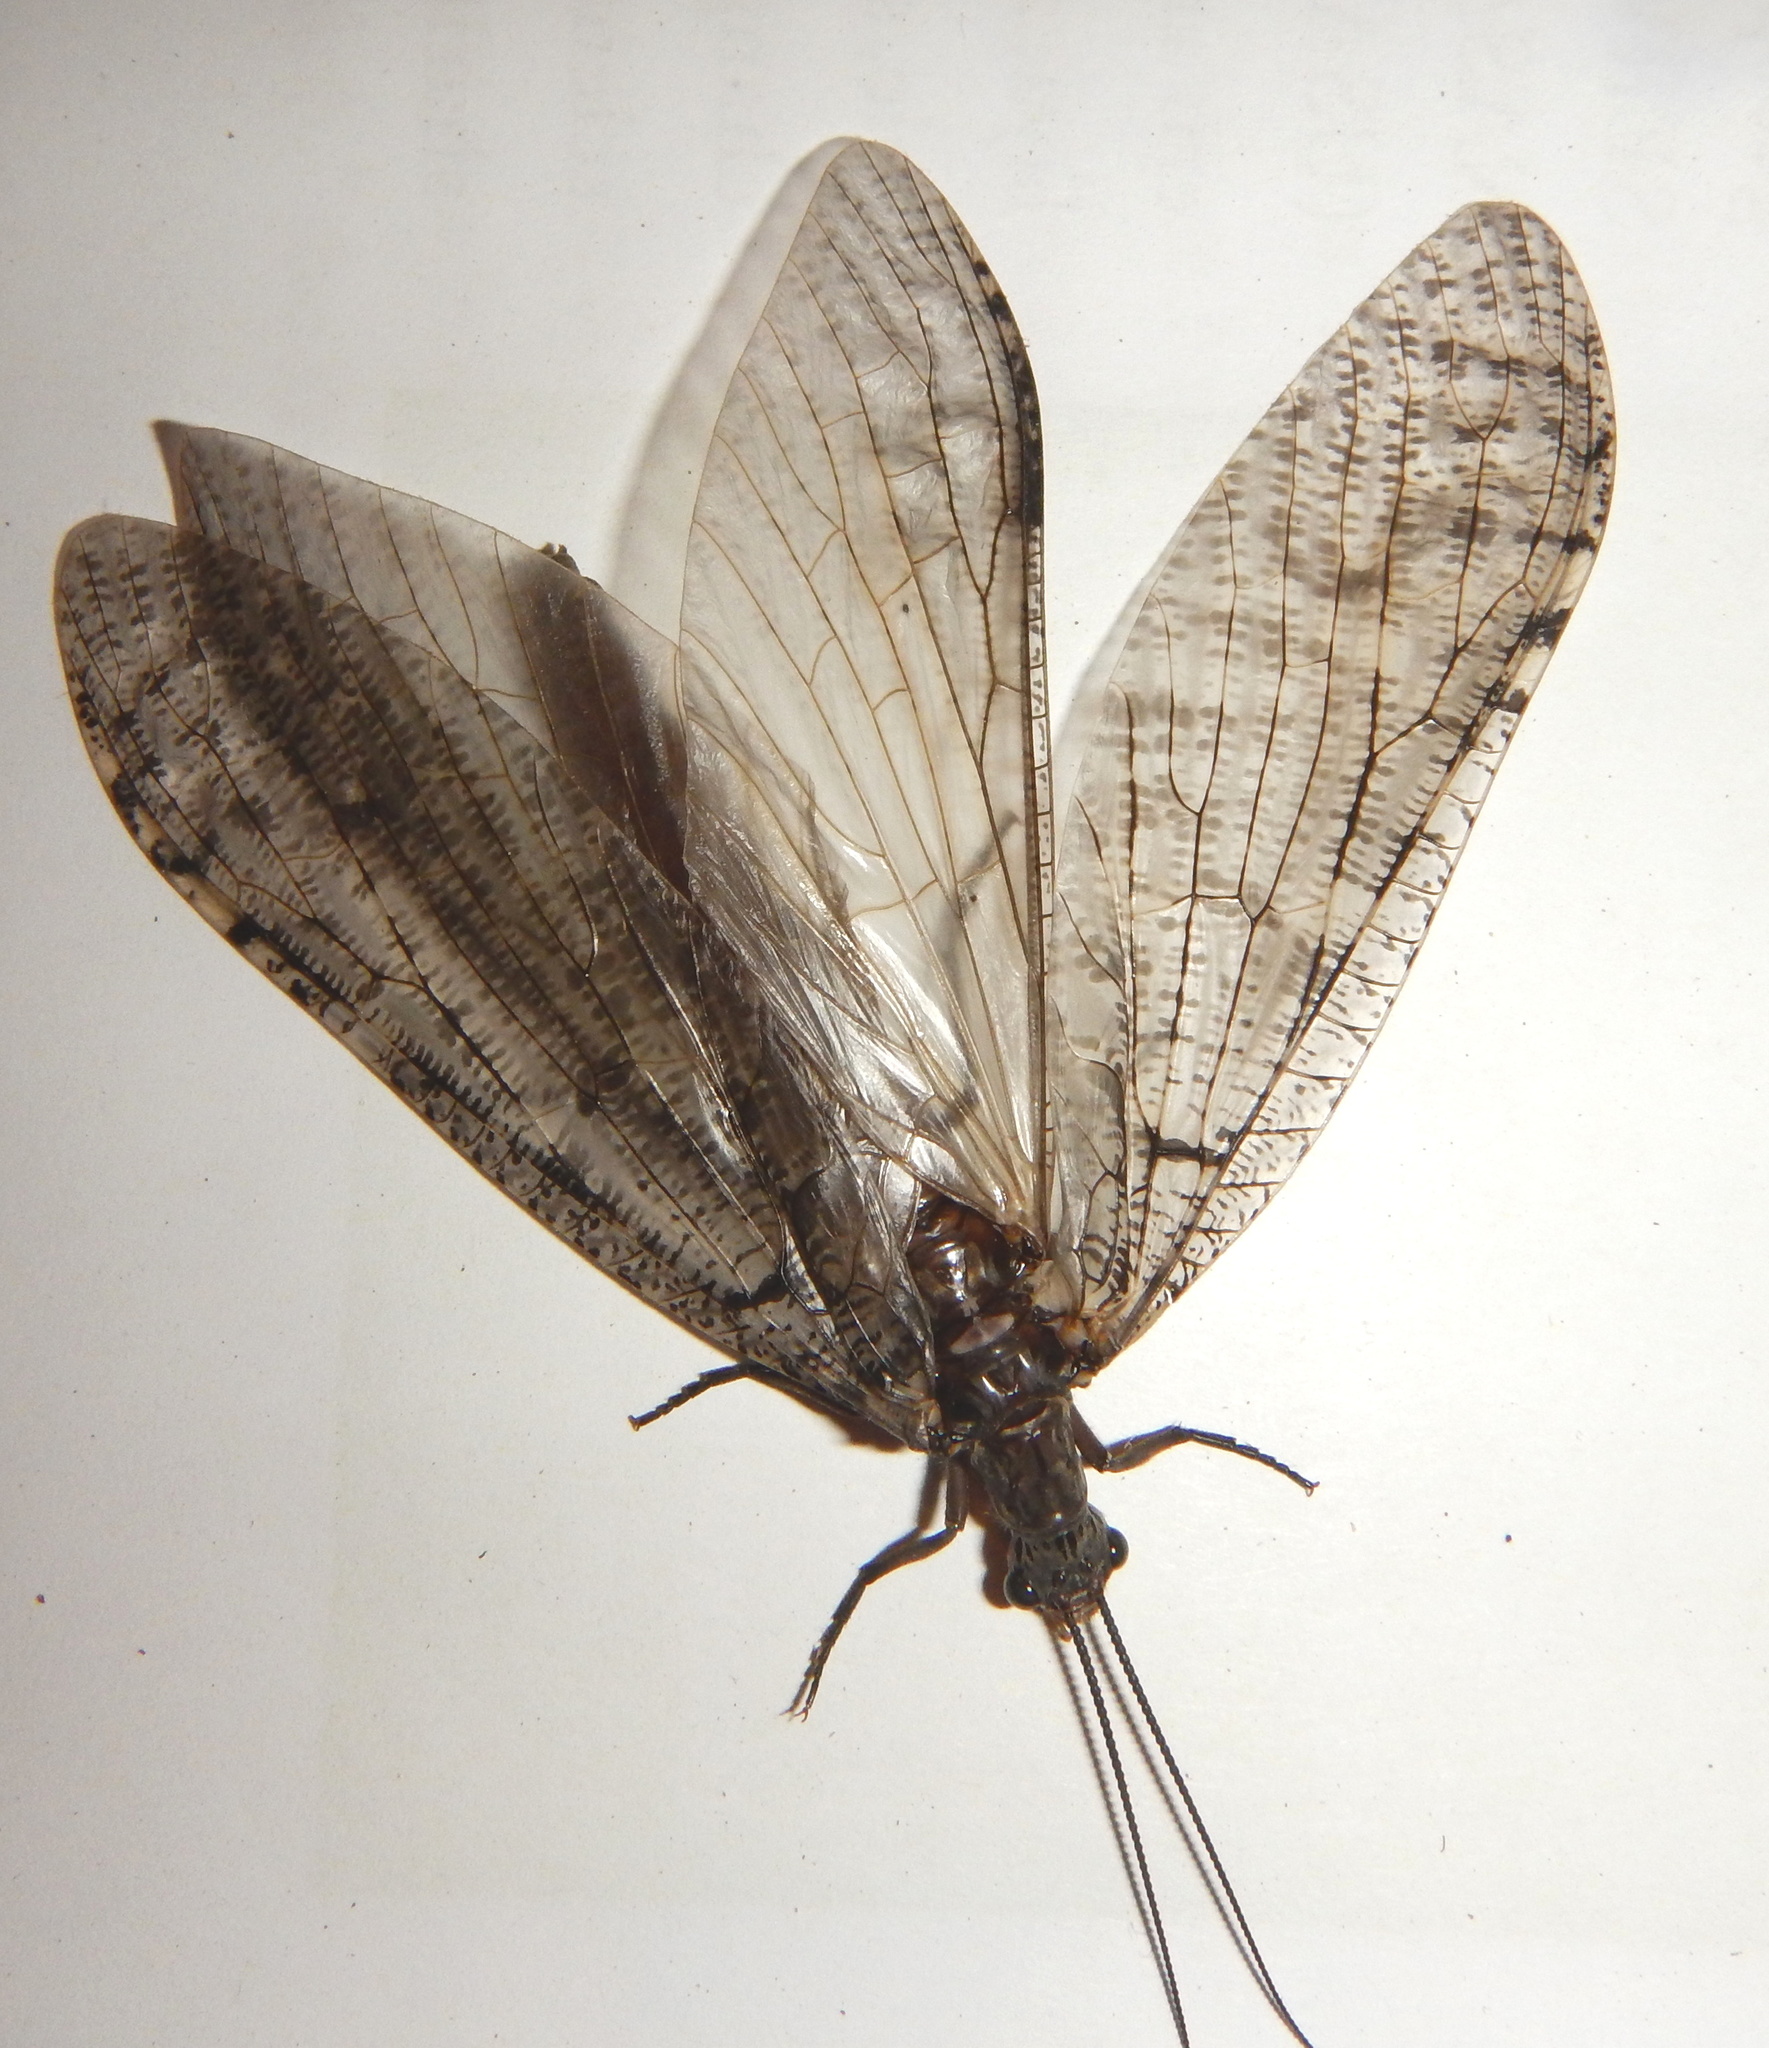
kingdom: Animalia
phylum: Arthropoda
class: Insecta
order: Megaloptera
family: Corydalidae
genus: Neohermes
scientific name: Neohermes californicus
